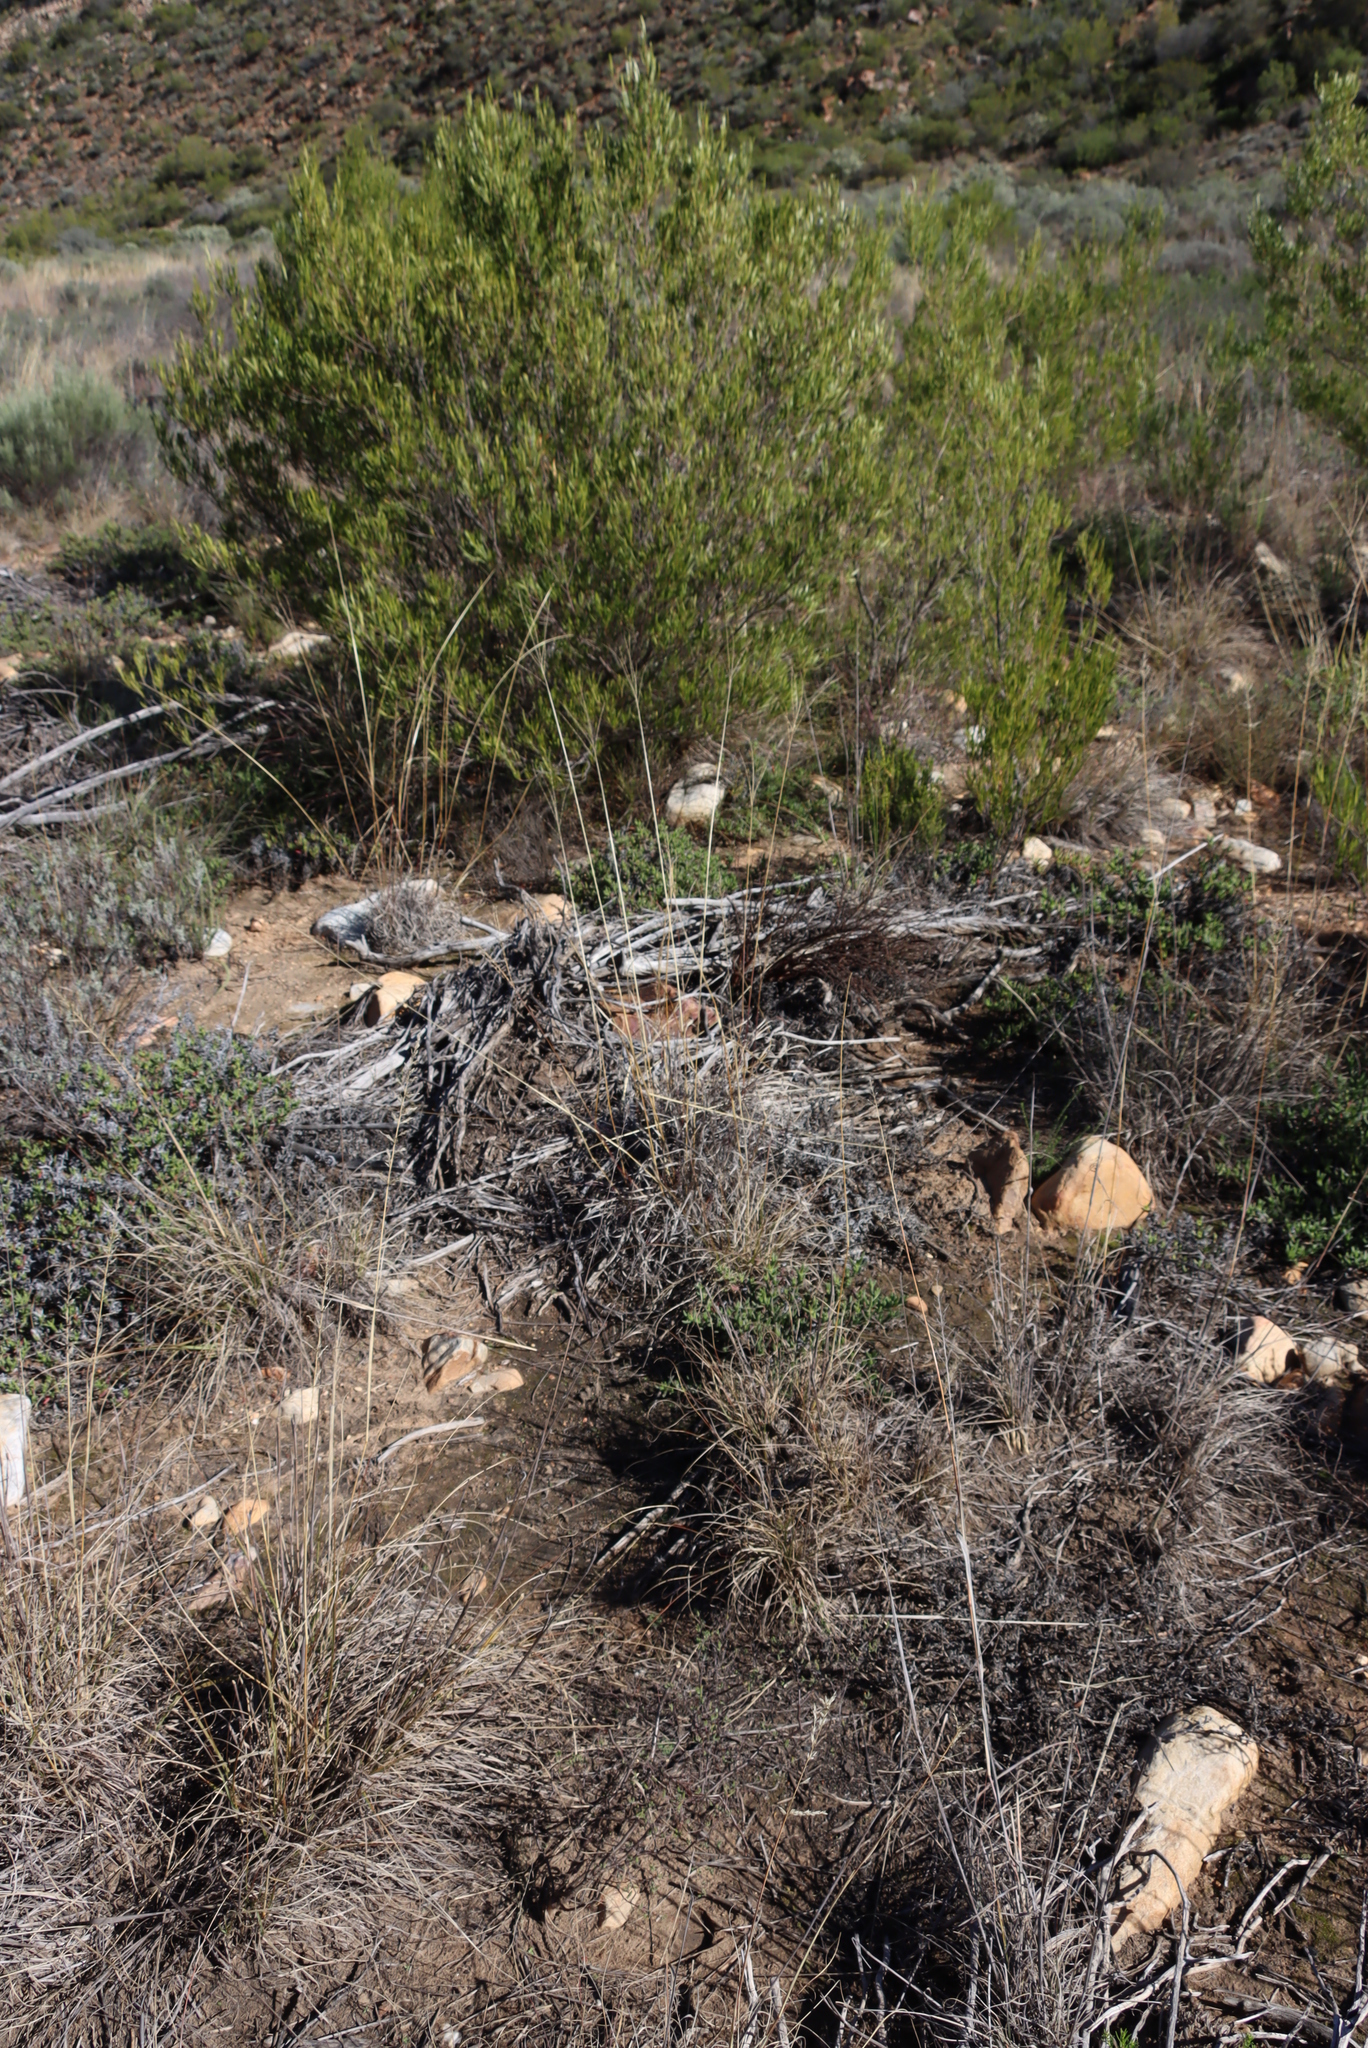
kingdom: Plantae
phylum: Tracheophyta
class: Liliopsida
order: Poales
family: Poaceae
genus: Digitaria
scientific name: Digitaria eriantha
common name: Digitgrass
